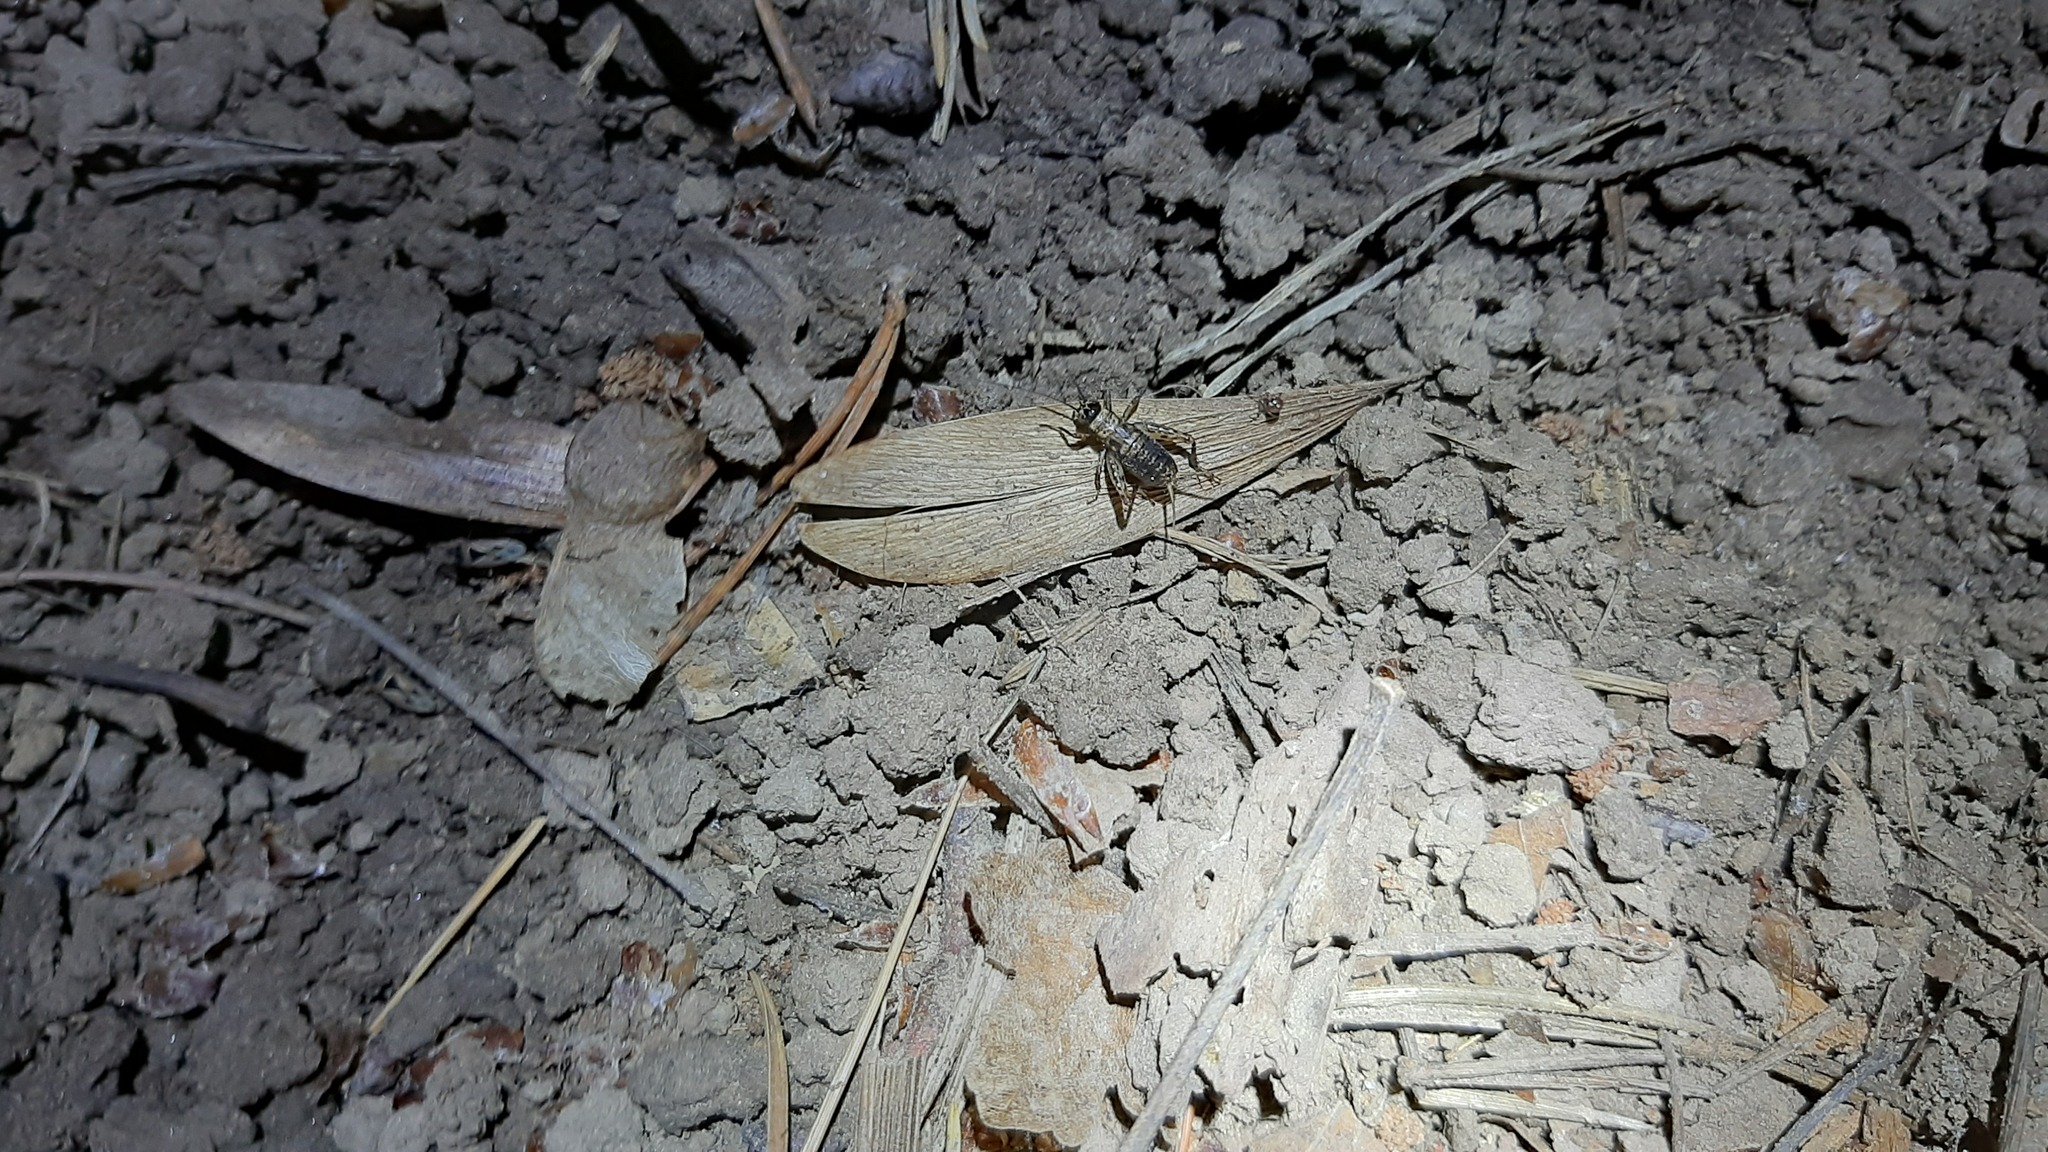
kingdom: Animalia
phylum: Arthropoda
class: Insecta
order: Orthoptera
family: Trigonidiidae
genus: Nemobius
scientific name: Nemobius sylvestris
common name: Wood-cricket
